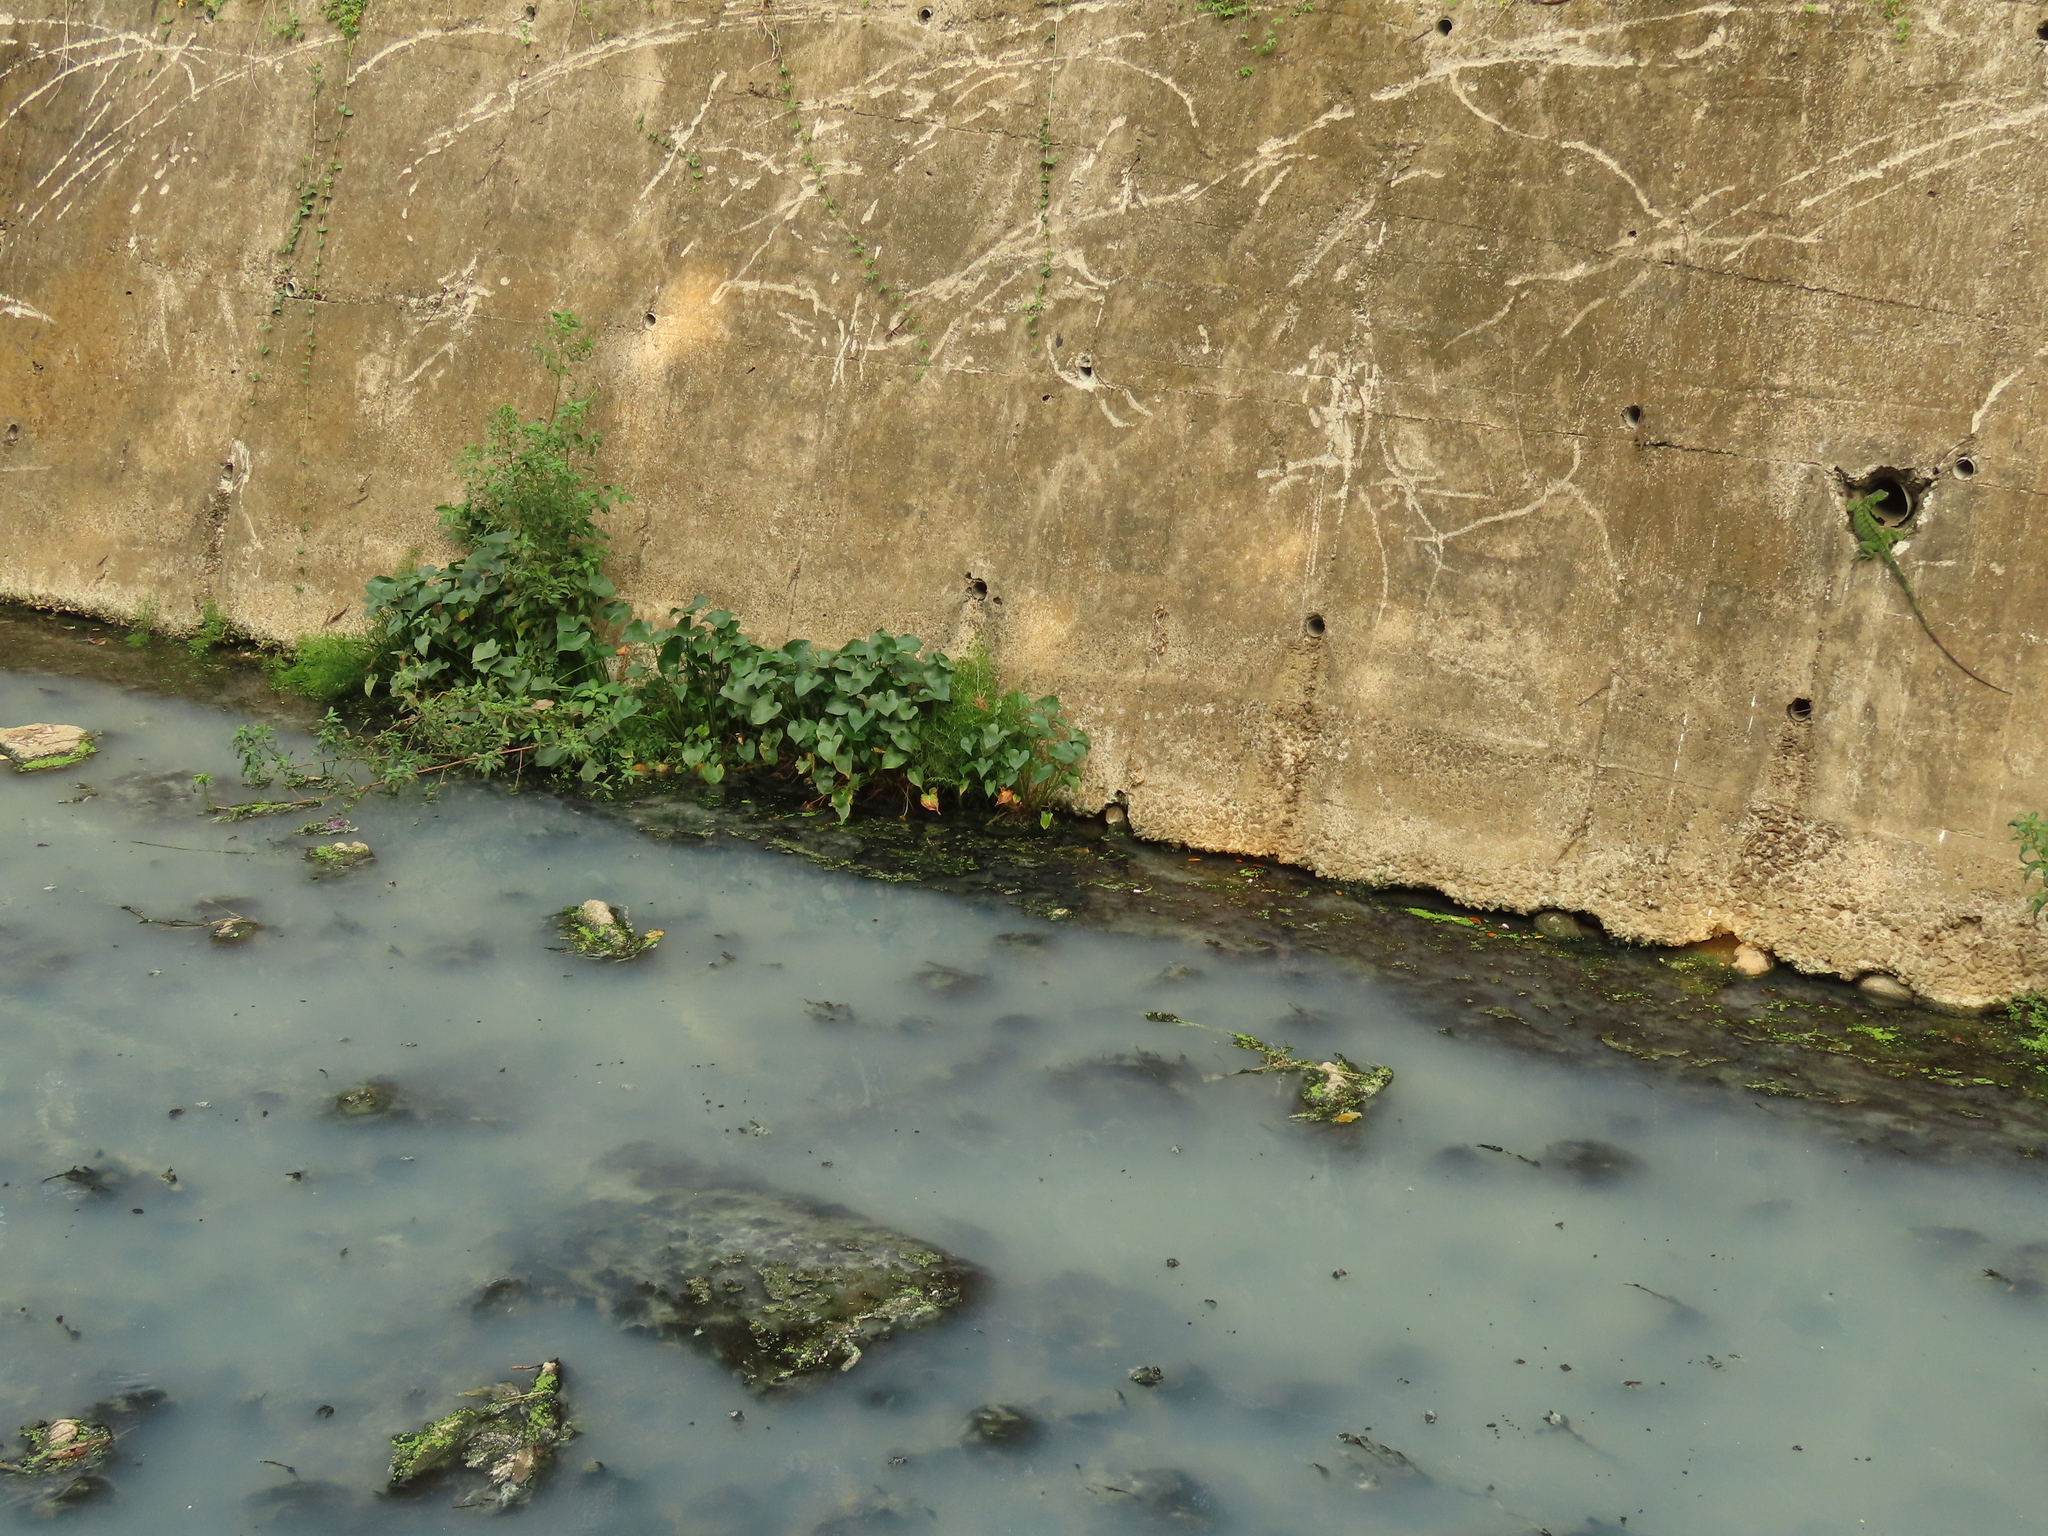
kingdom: Plantae
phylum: Tracheophyta
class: Polypodiopsida
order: Polypodiales
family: Pteridaceae
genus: Ceratopteris
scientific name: Ceratopteris thalictroides
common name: Water fern
